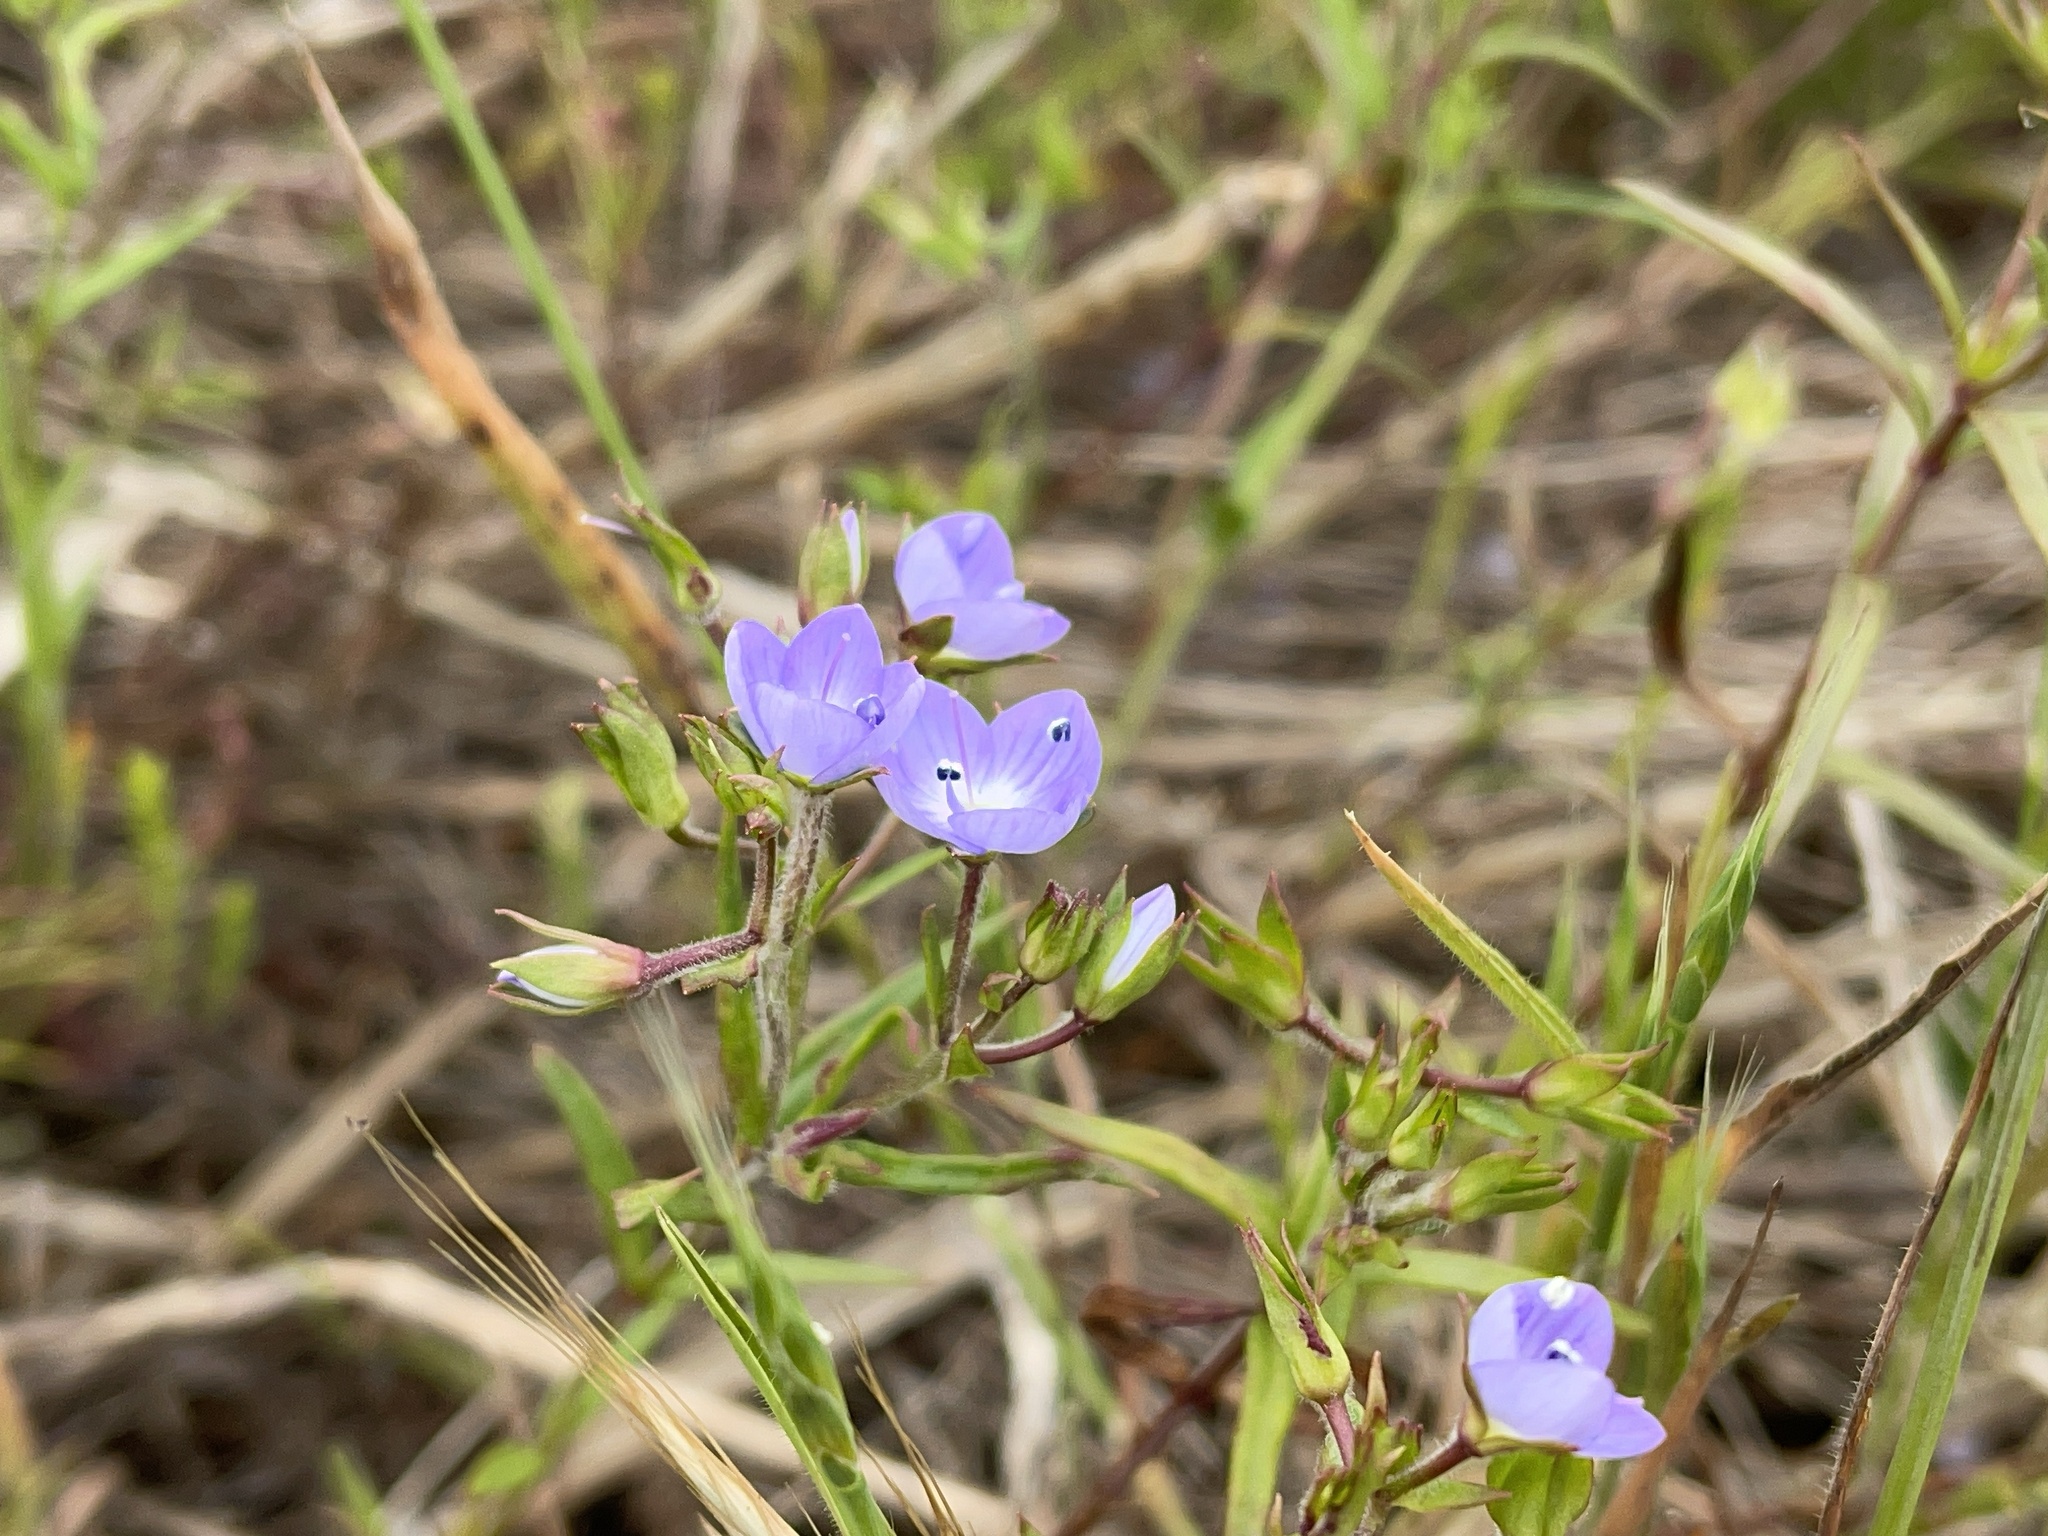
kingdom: Plantae
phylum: Tracheophyta
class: Magnoliopsida
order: Lamiales
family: Plantaginaceae
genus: Veronica
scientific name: Veronica gracilis
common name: Slender speedwell
